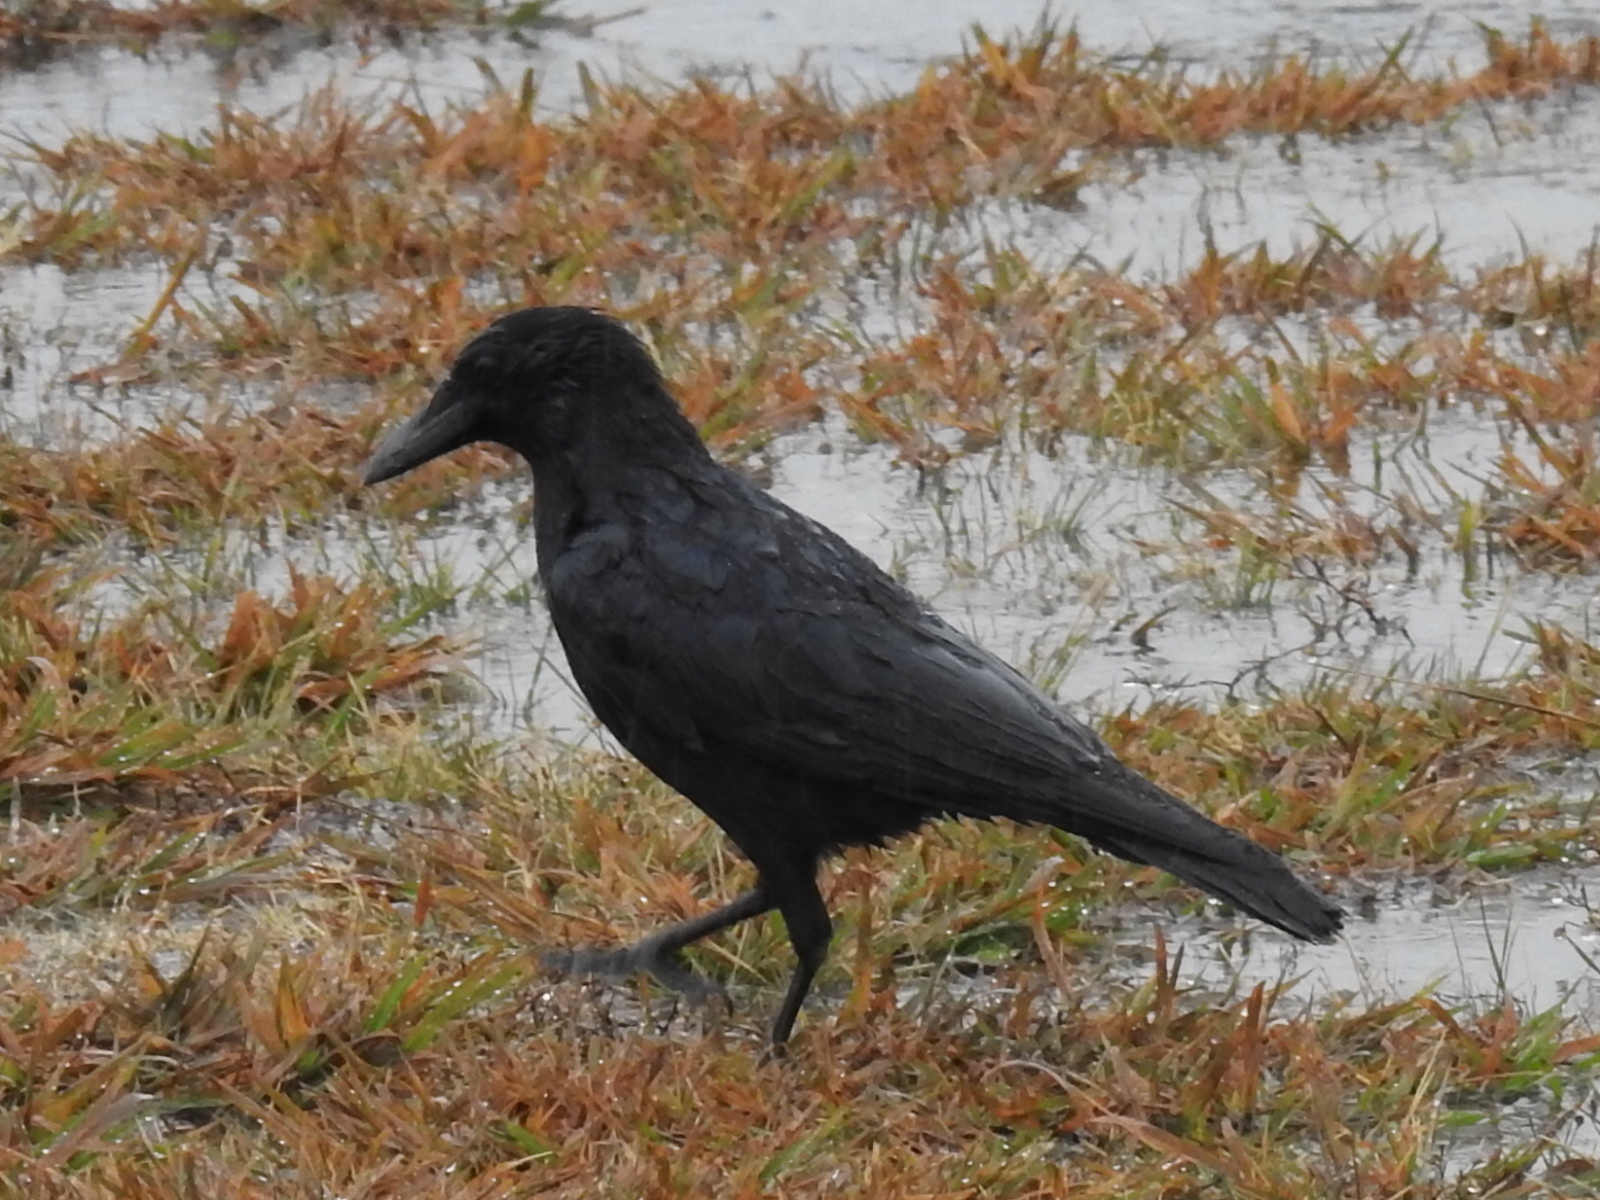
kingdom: Animalia
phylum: Chordata
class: Aves
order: Passeriformes
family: Corvidae
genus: Corvus
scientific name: Corvus brachyrhynchos
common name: American crow
